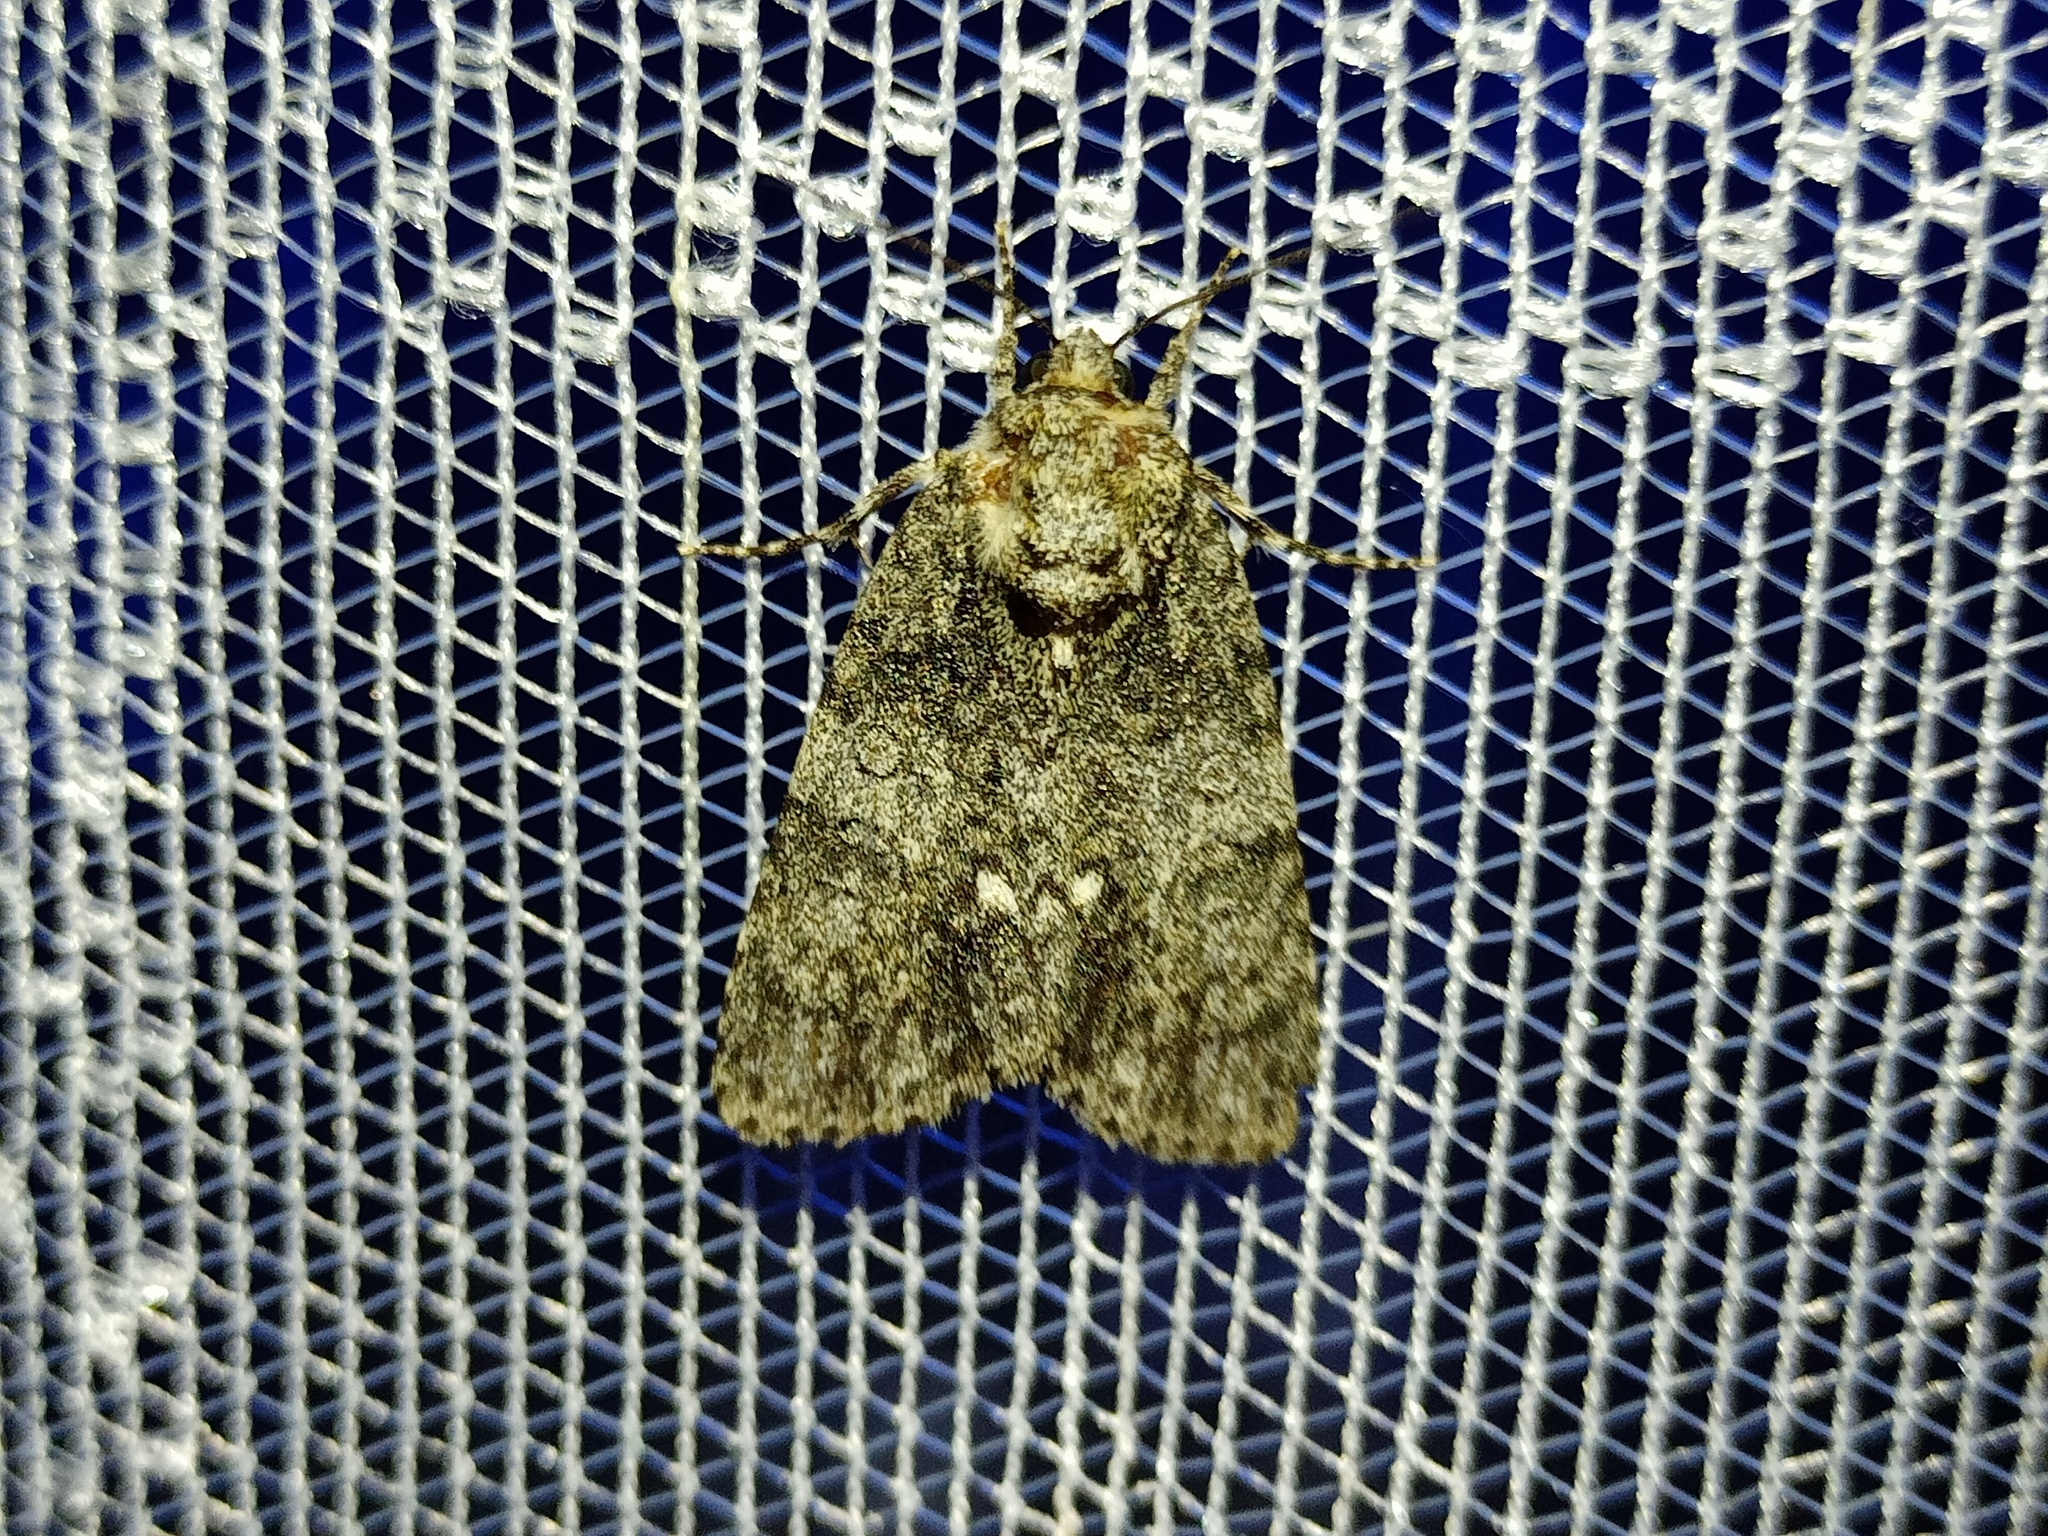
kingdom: Animalia
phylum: Arthropoda
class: Insecta
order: Lepidoptera
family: Noctuidae
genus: Acronicta
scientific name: Acronicta rumicis
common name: Knot grass
